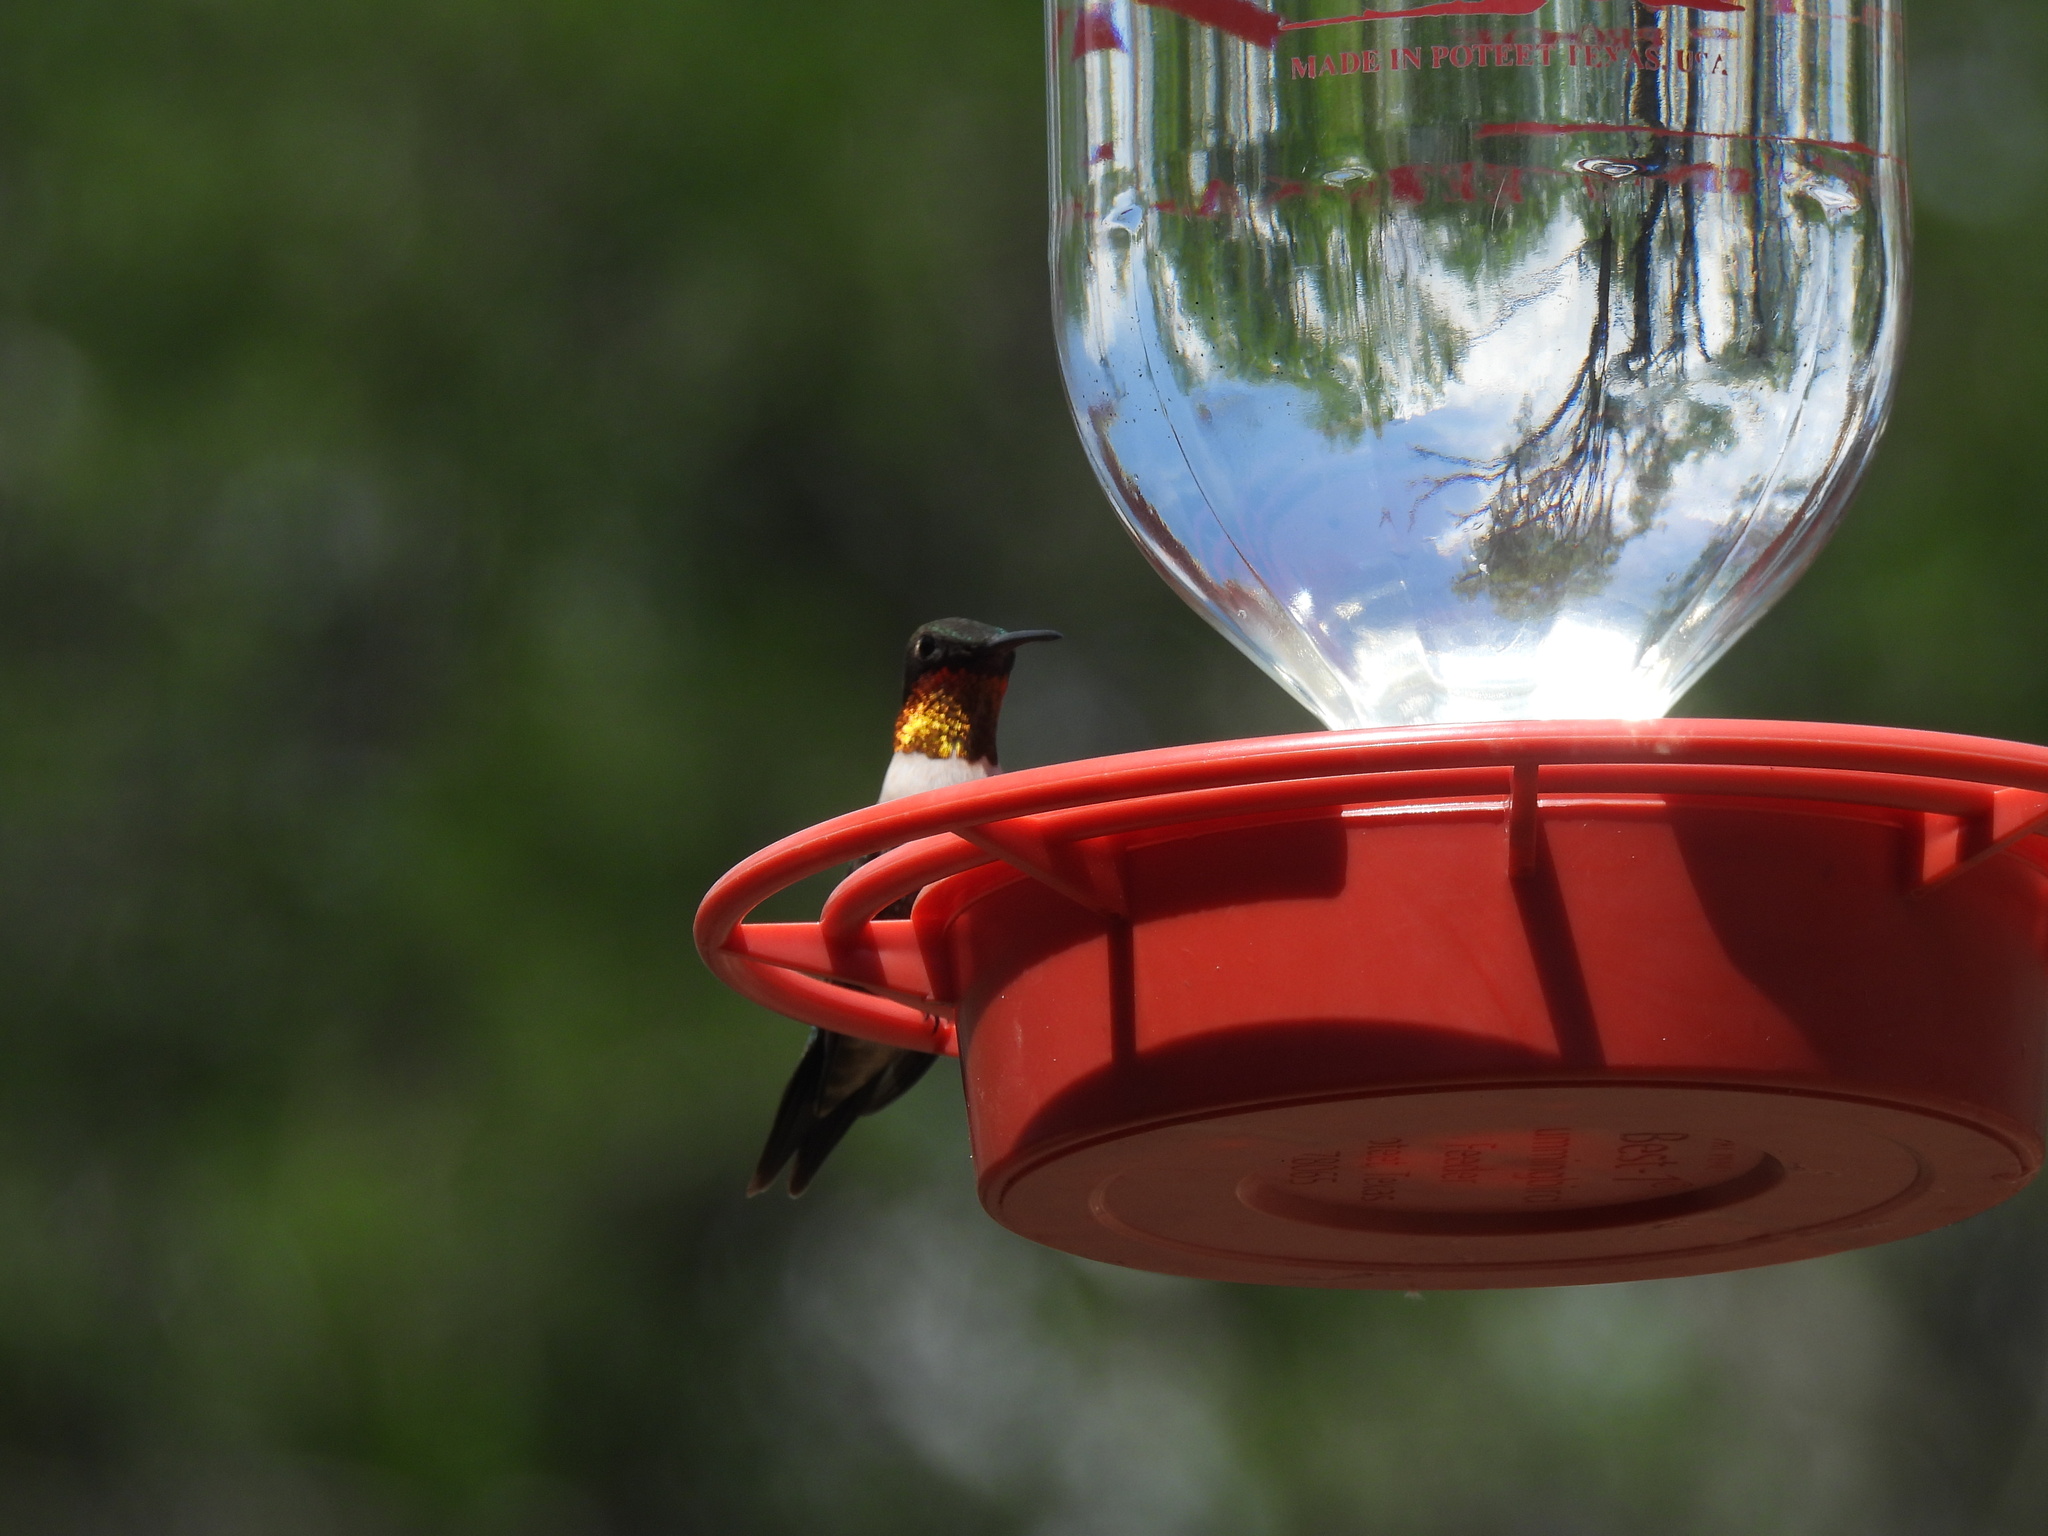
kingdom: Animalia
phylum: Chordata
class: Aves
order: Apodiformes
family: Trochilidae
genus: Archilochus
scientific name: Archilochus colubris
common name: Ruby-throated hummingbird
